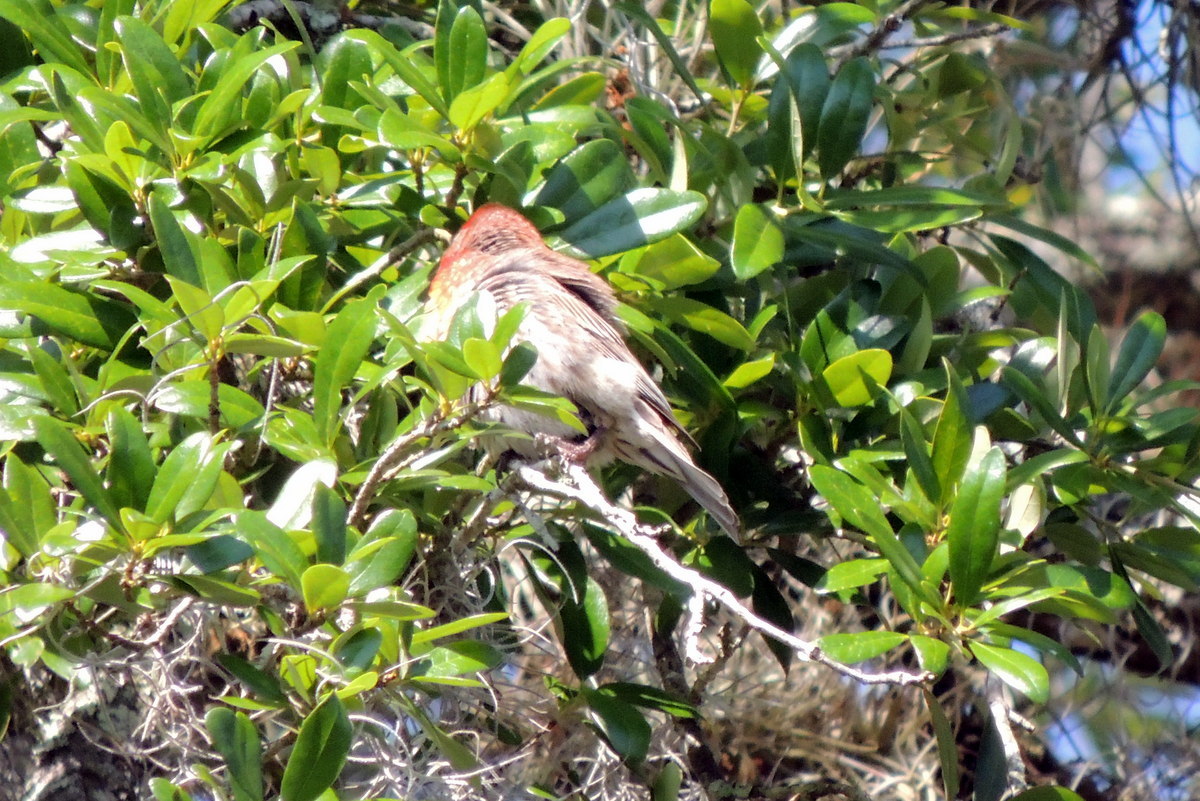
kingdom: Animalia
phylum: Chordata
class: Aves
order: Passeriformes
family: Fringillidae
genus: Haemorhous
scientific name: Haemorhous mexicanus
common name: House finch
